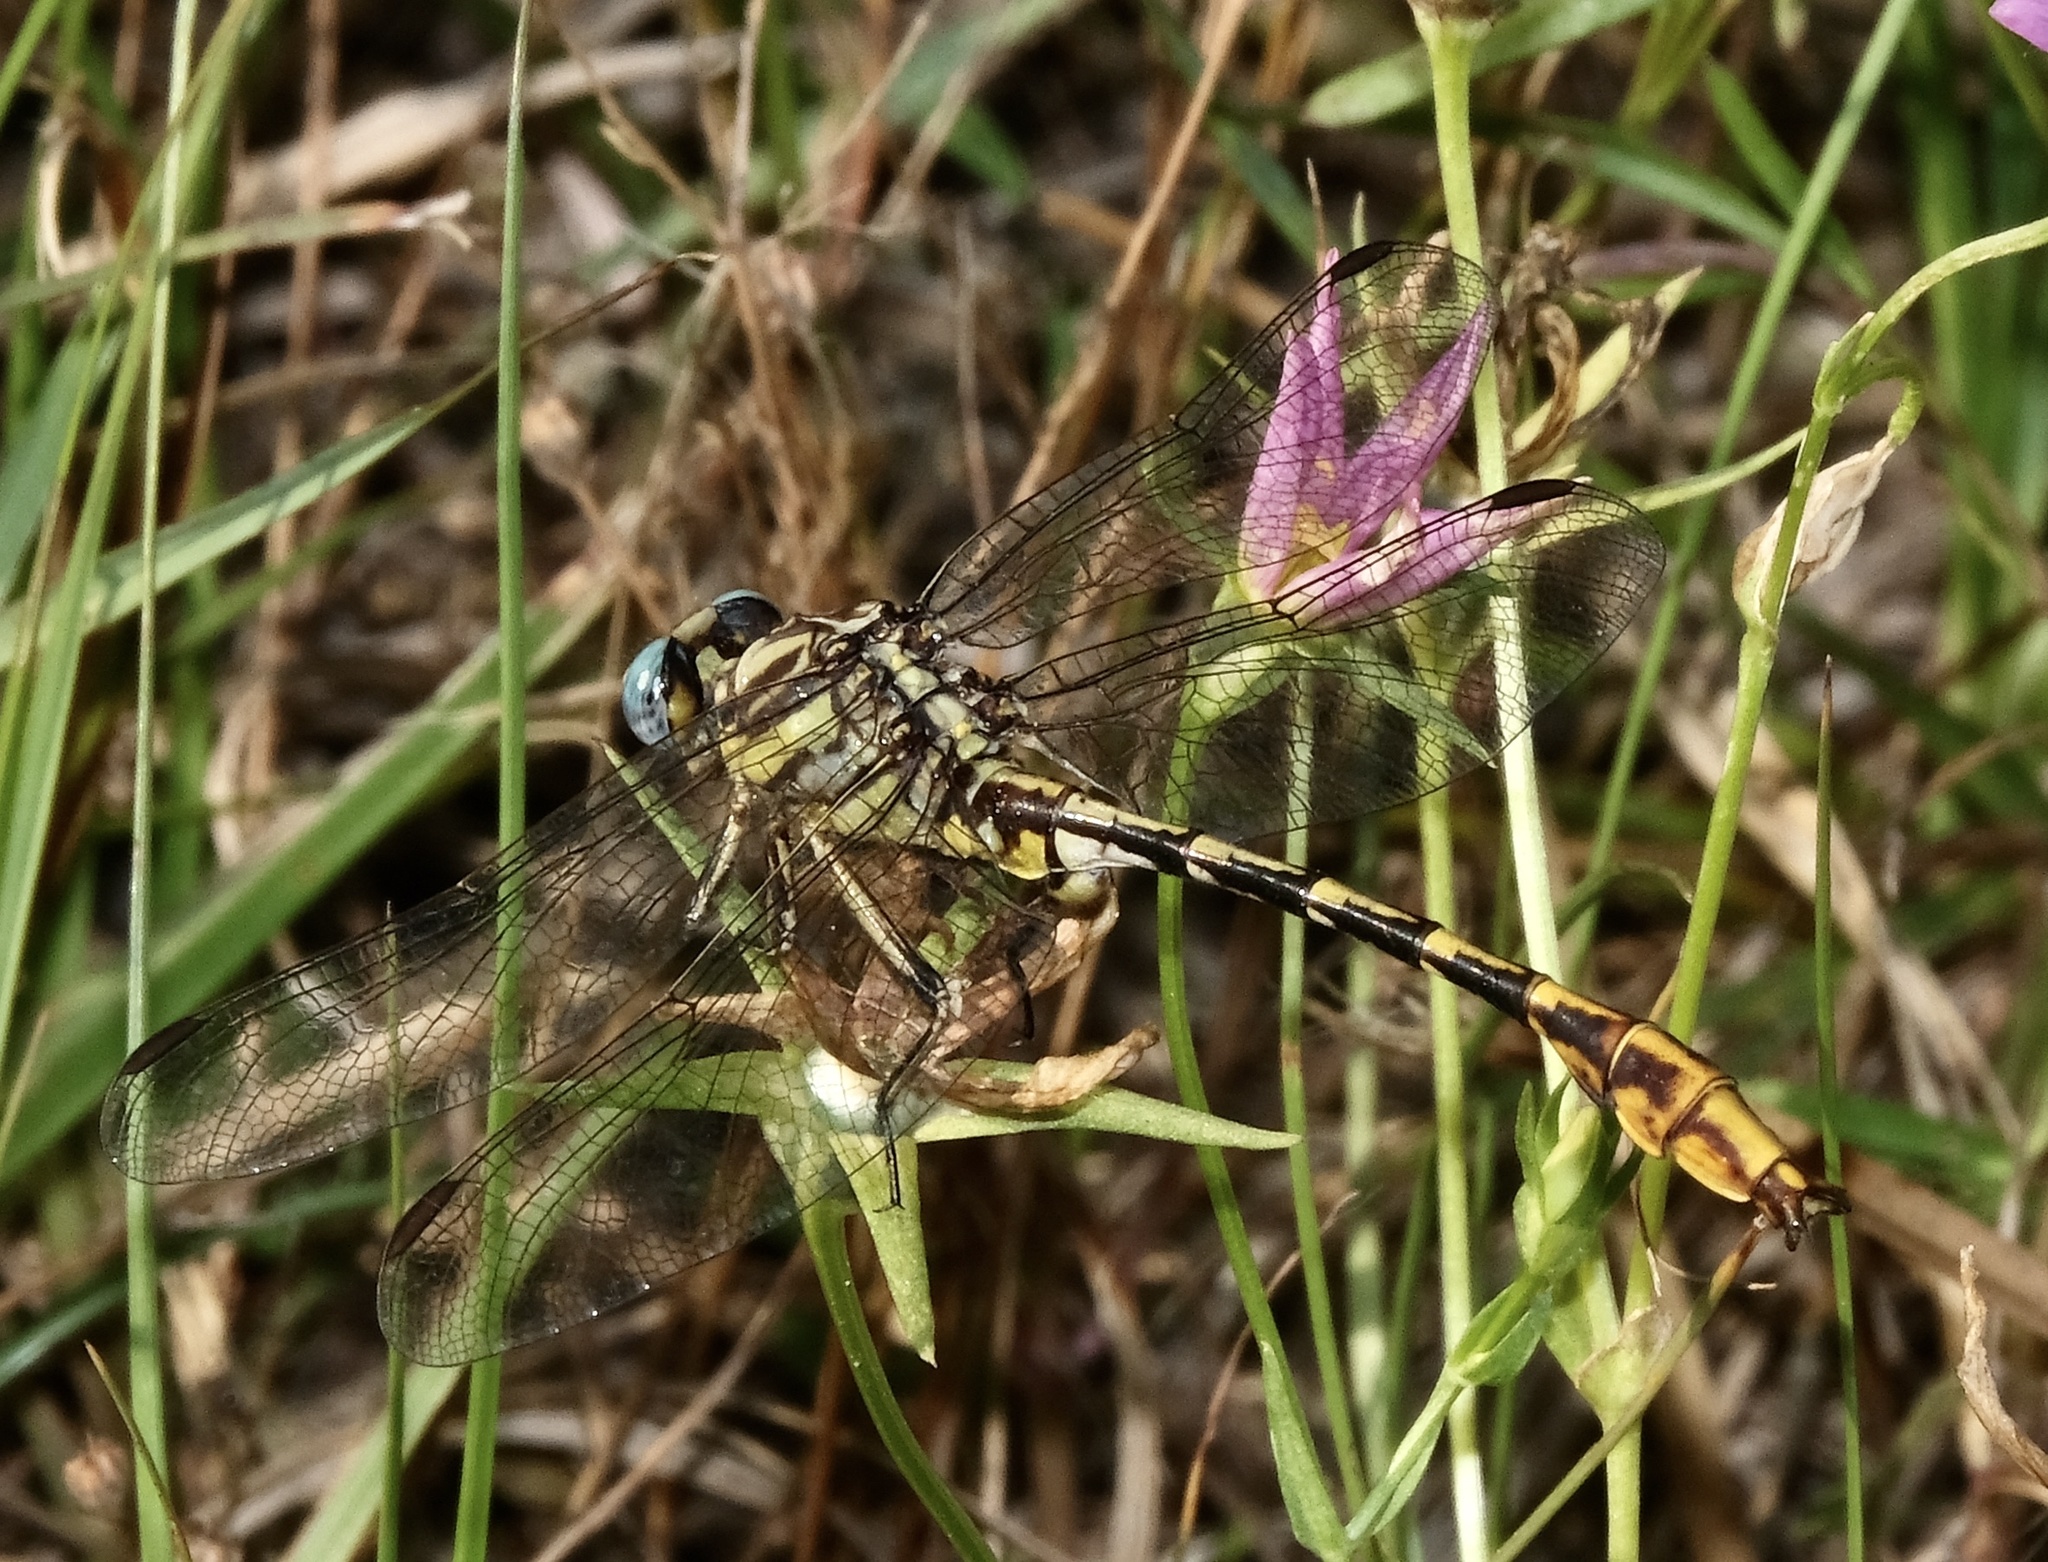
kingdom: Animalia
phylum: Arthropoda
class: Insecta
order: Odonata
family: Gomphidae
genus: Phanogomphus
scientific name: Phanogomphus militaris
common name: Sulphur-tipped clubtail
